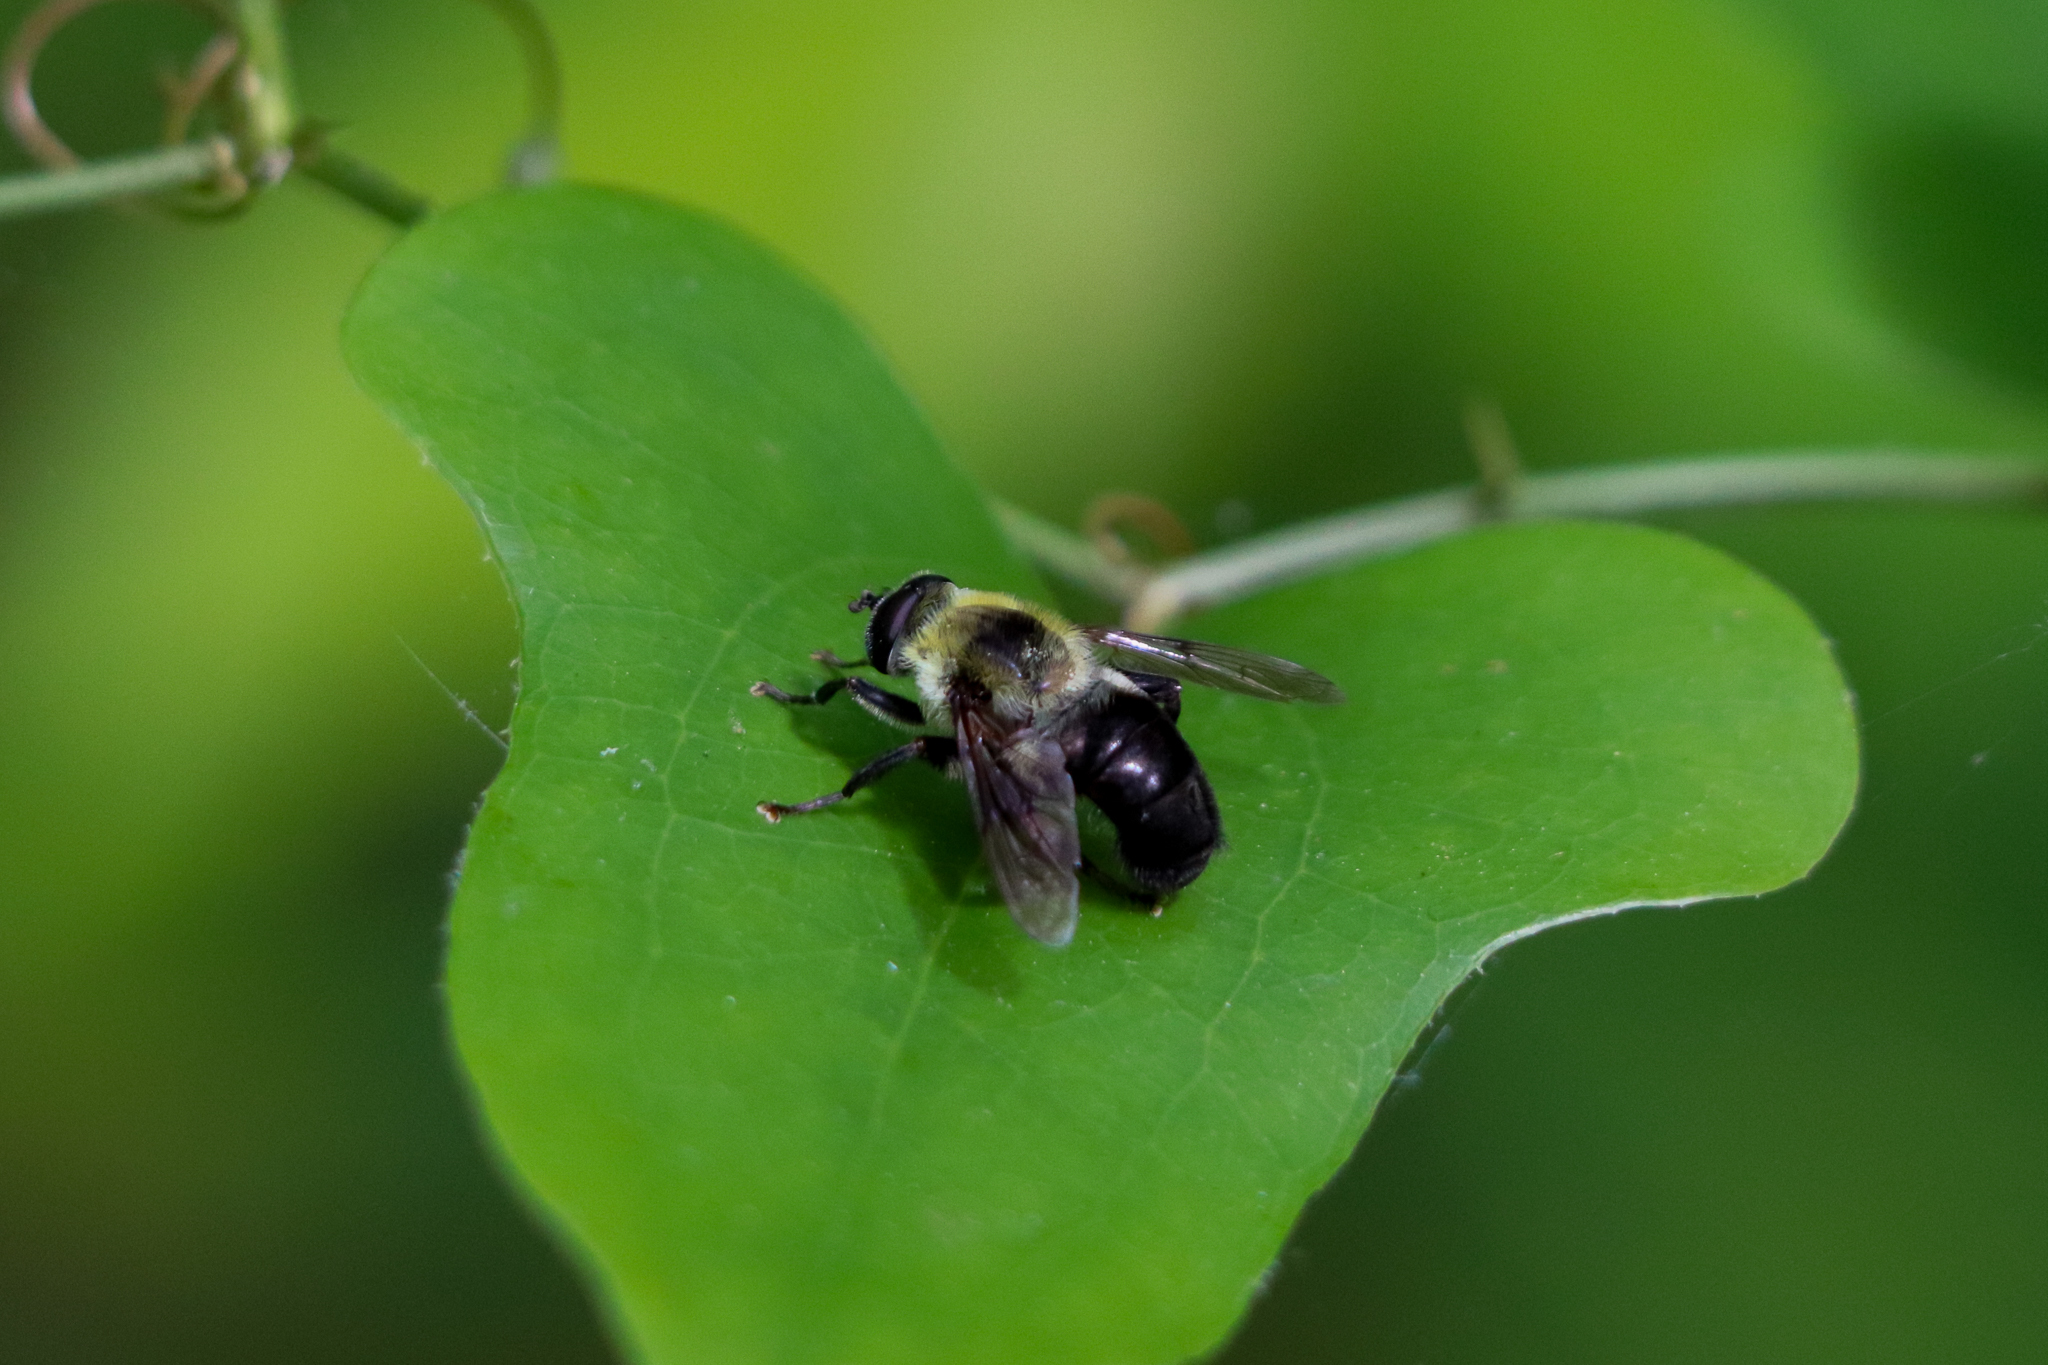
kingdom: Animalia
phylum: Arthropoda
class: Insecta
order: Diptera
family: Syrphidae
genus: Imatisma
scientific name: Imatisma posticata
